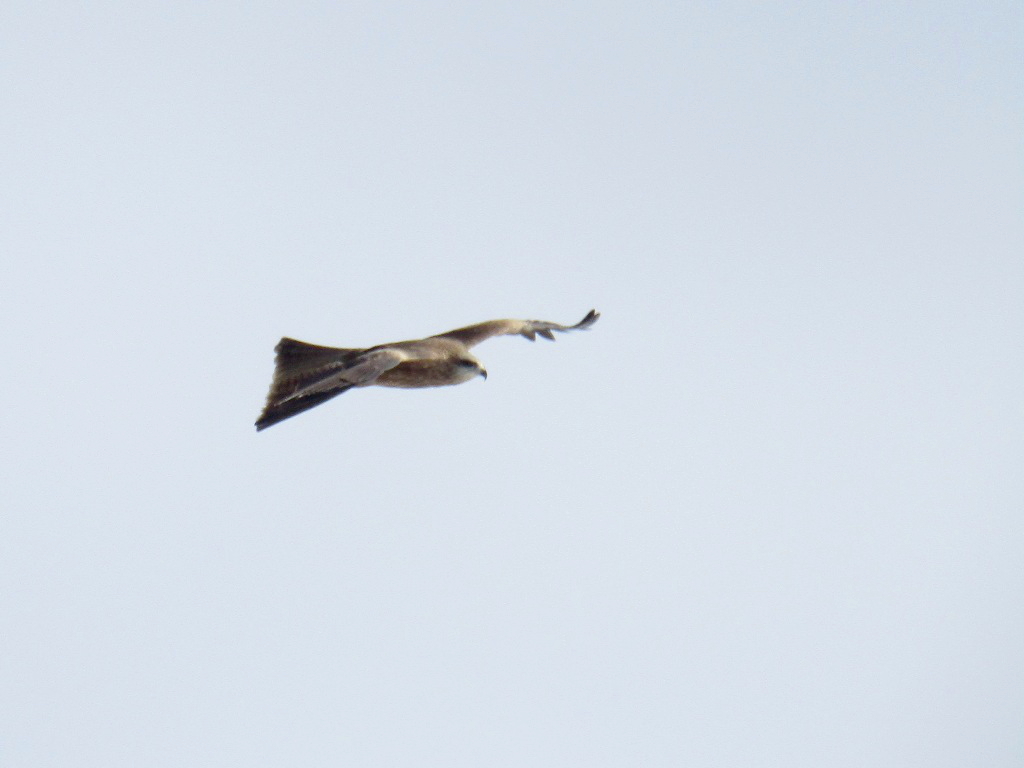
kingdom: Animalia
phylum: Chordata
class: Aves
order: Accipitriformes
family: Accipitridae
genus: Milvus
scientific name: Milvus migrans
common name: Black kite
